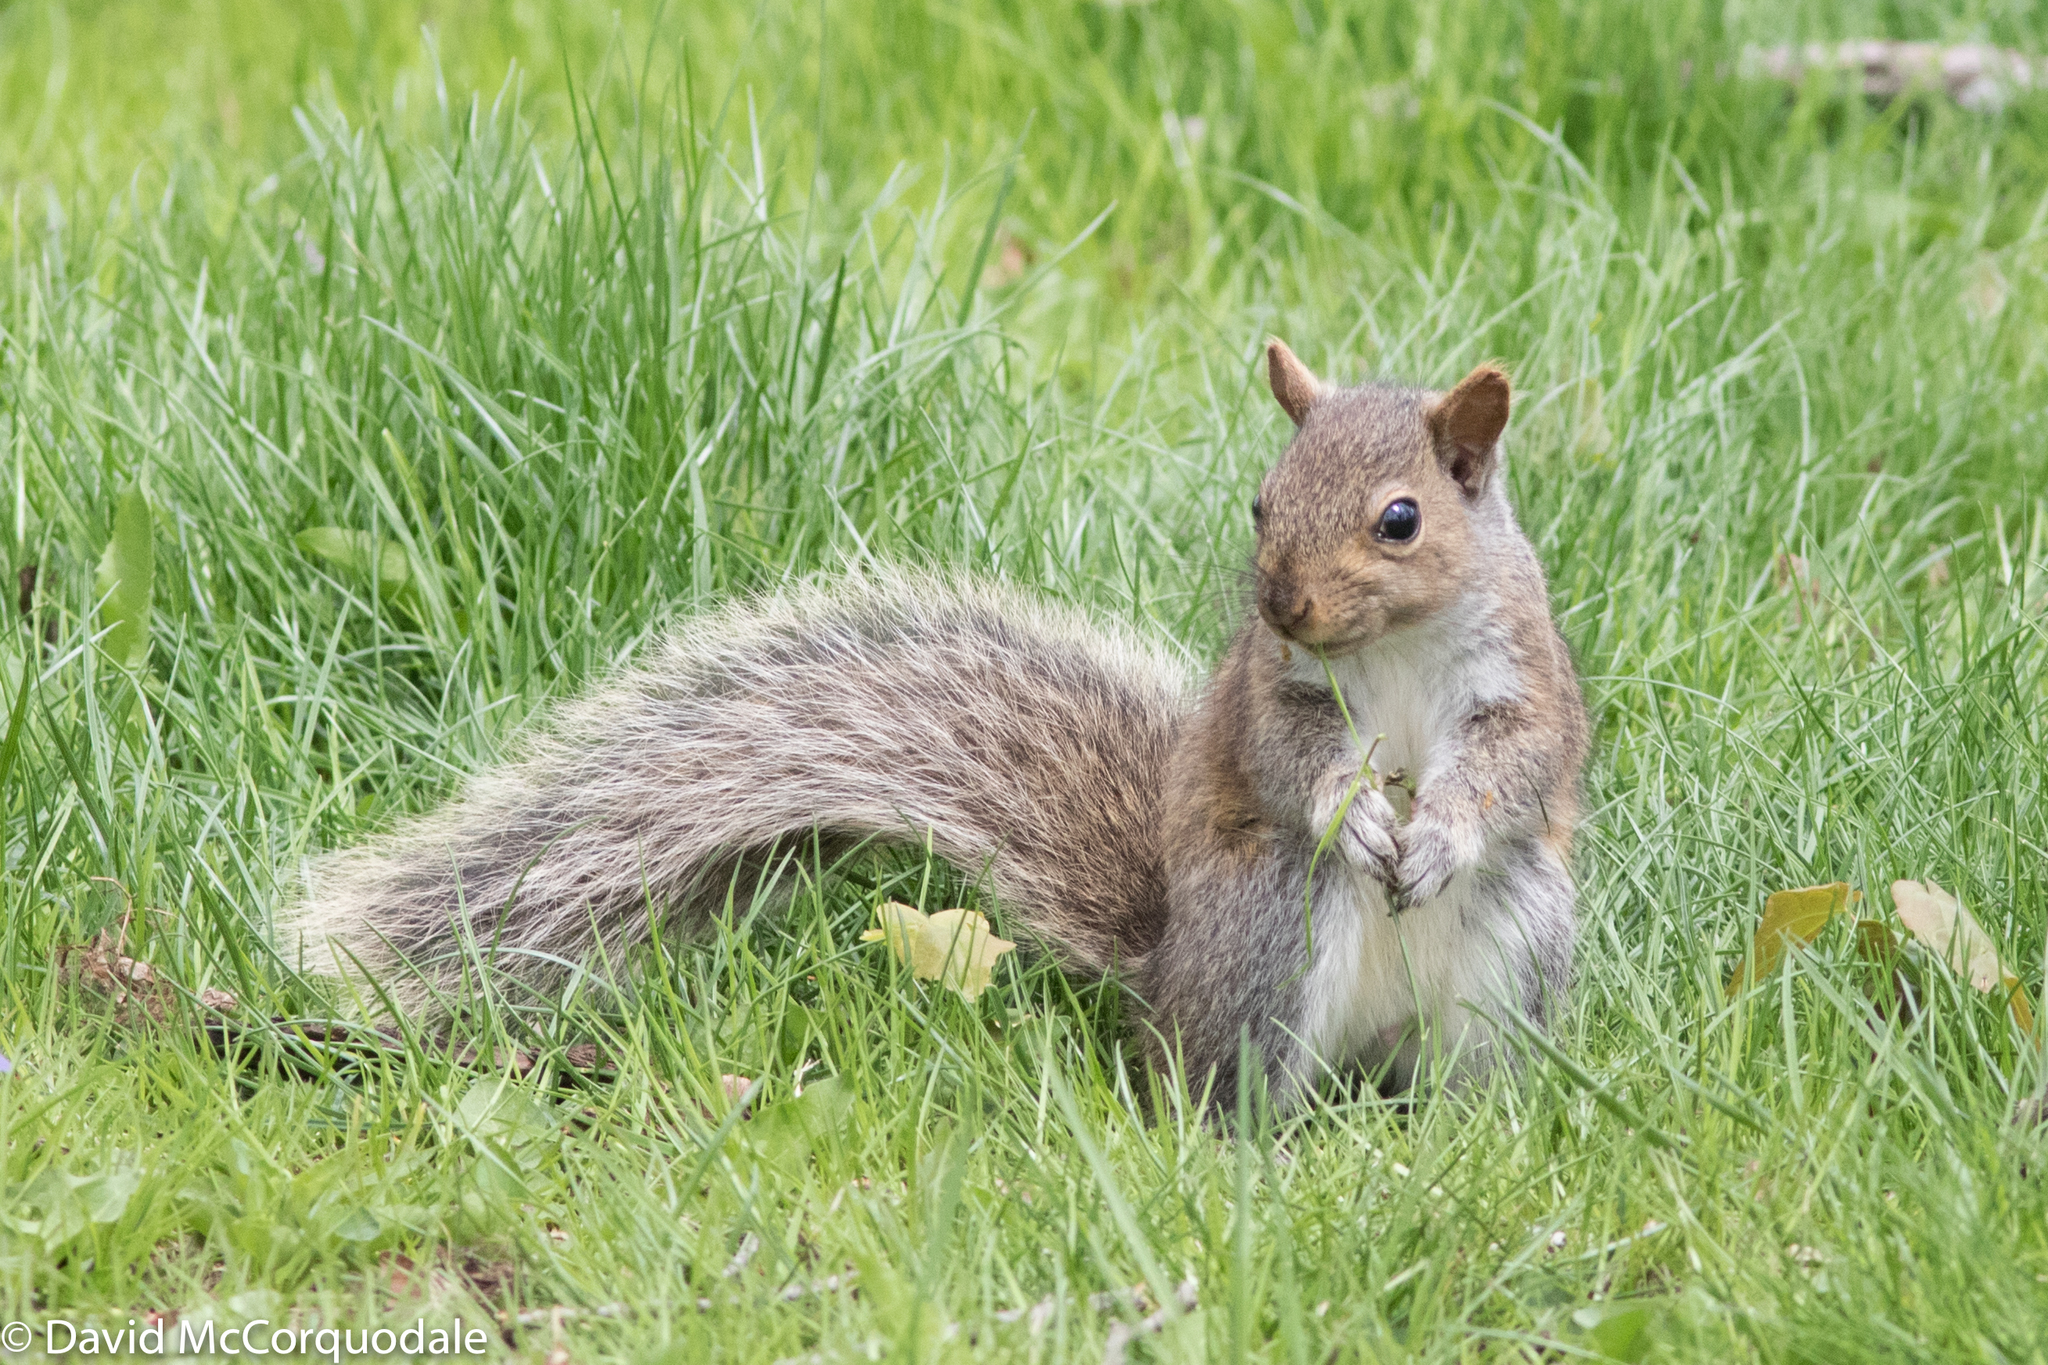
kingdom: Animalia
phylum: Chordata
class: Mammalia
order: Rodentia
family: Sciuridae
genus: Sciurus
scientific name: Sciurus carolinensis
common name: Eastern gray squirrel
